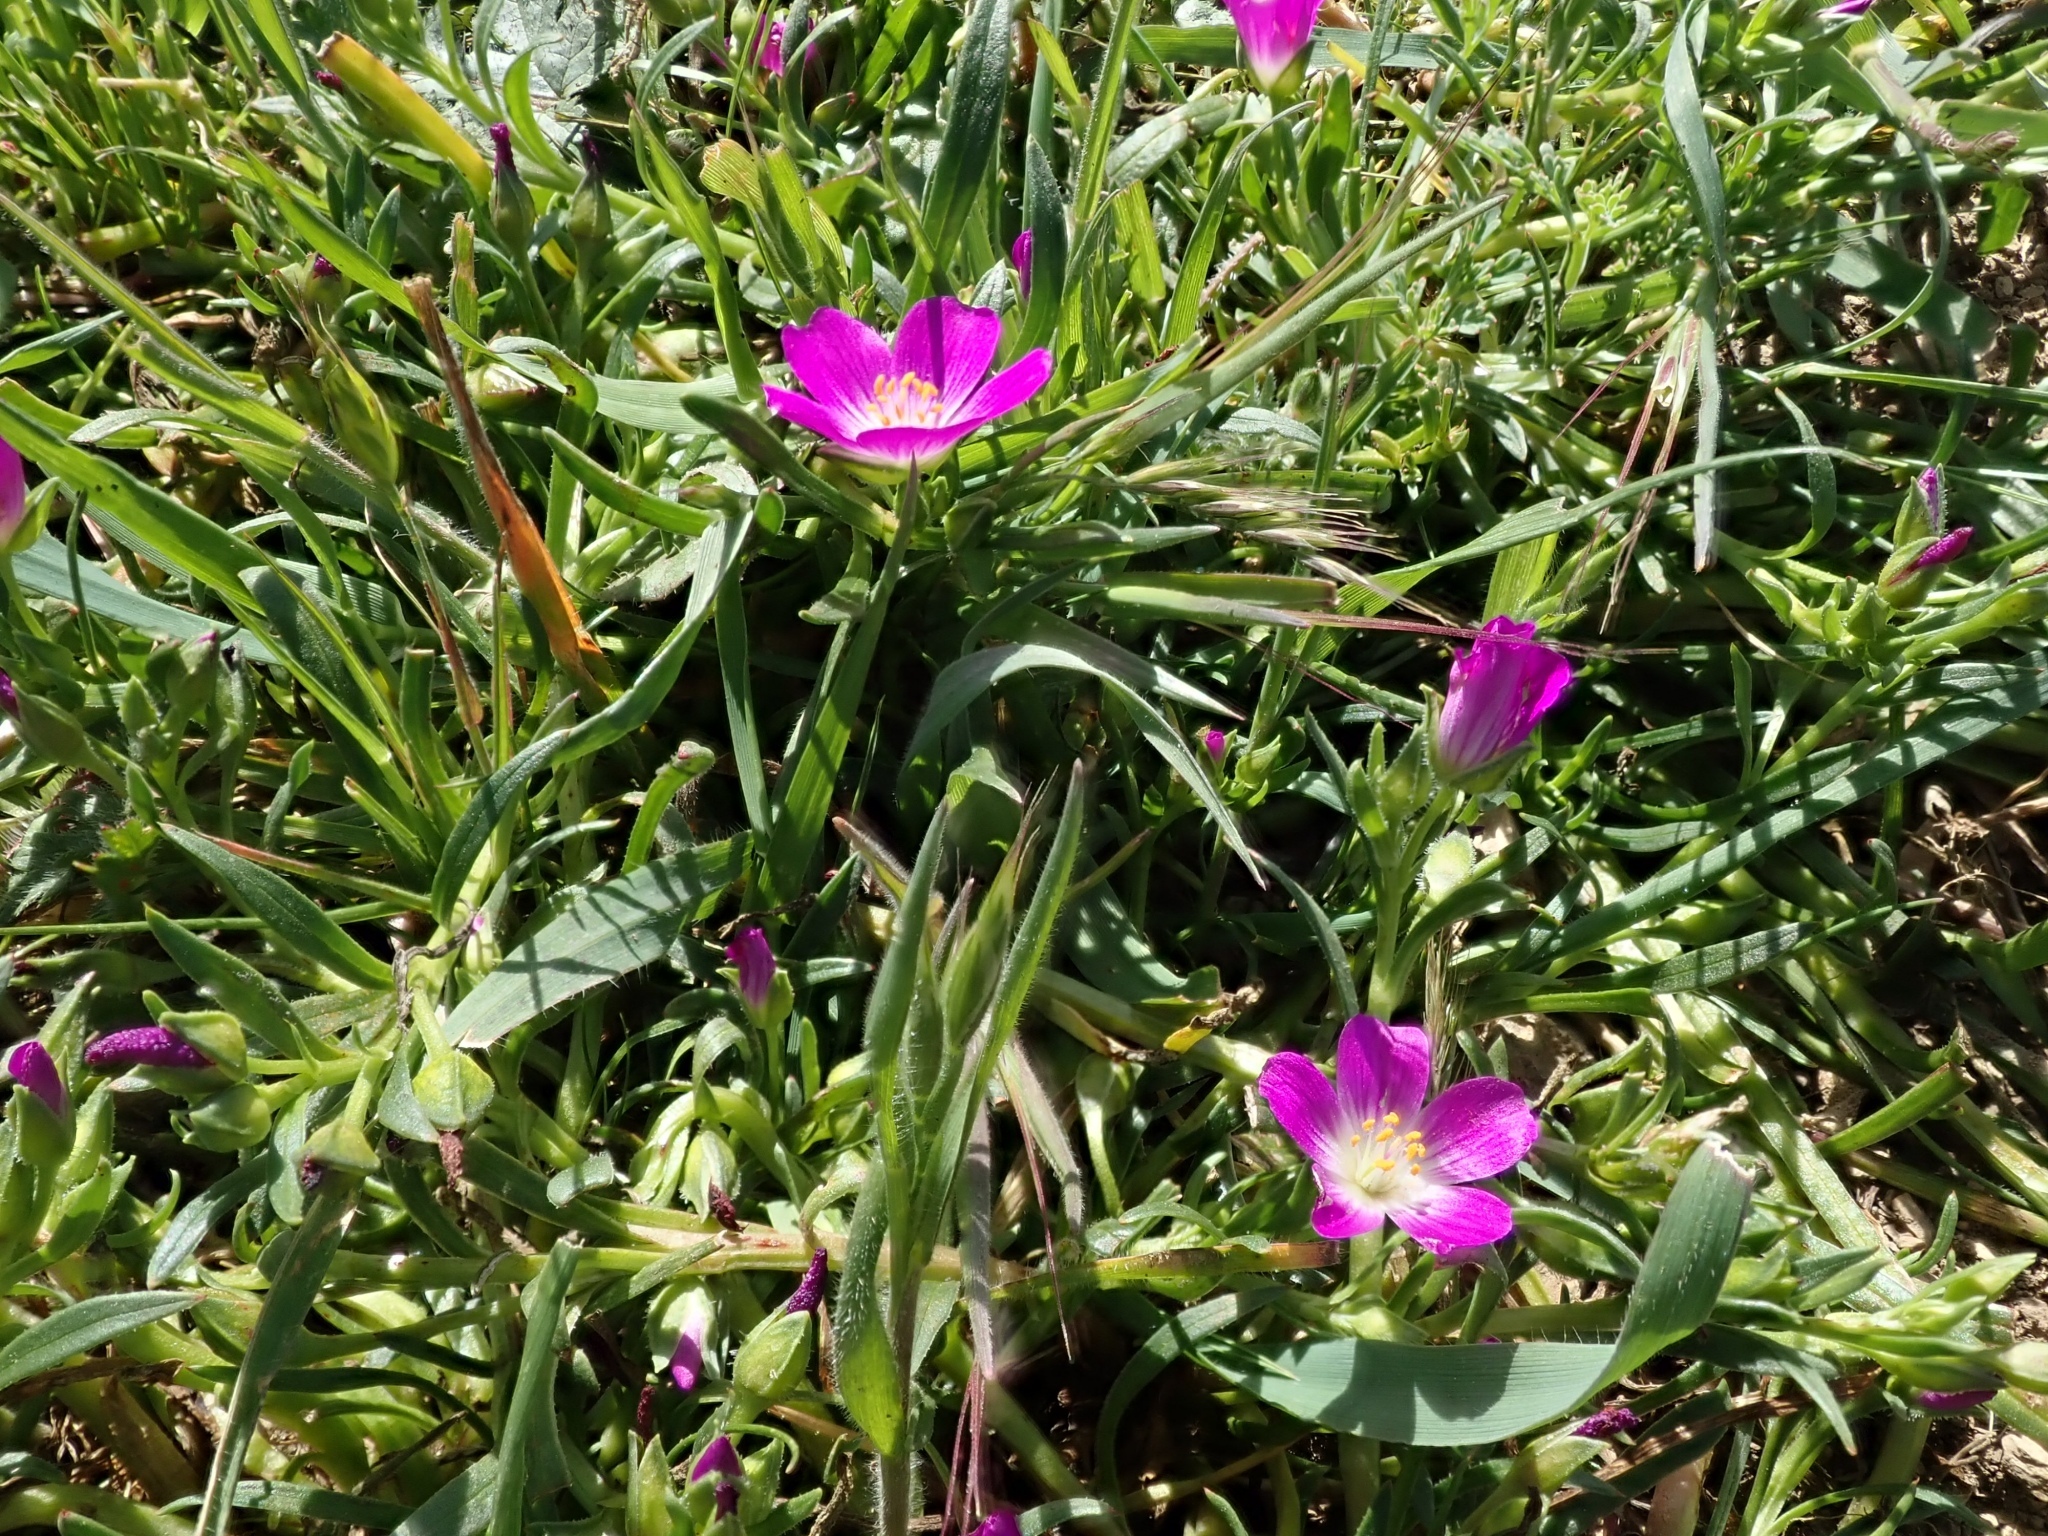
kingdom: Plantae
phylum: Tracheophyta
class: Magnoliopsida
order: Caryophyllales
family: Montiaceae
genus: Calandrinia
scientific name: Calandrinia menziesii
